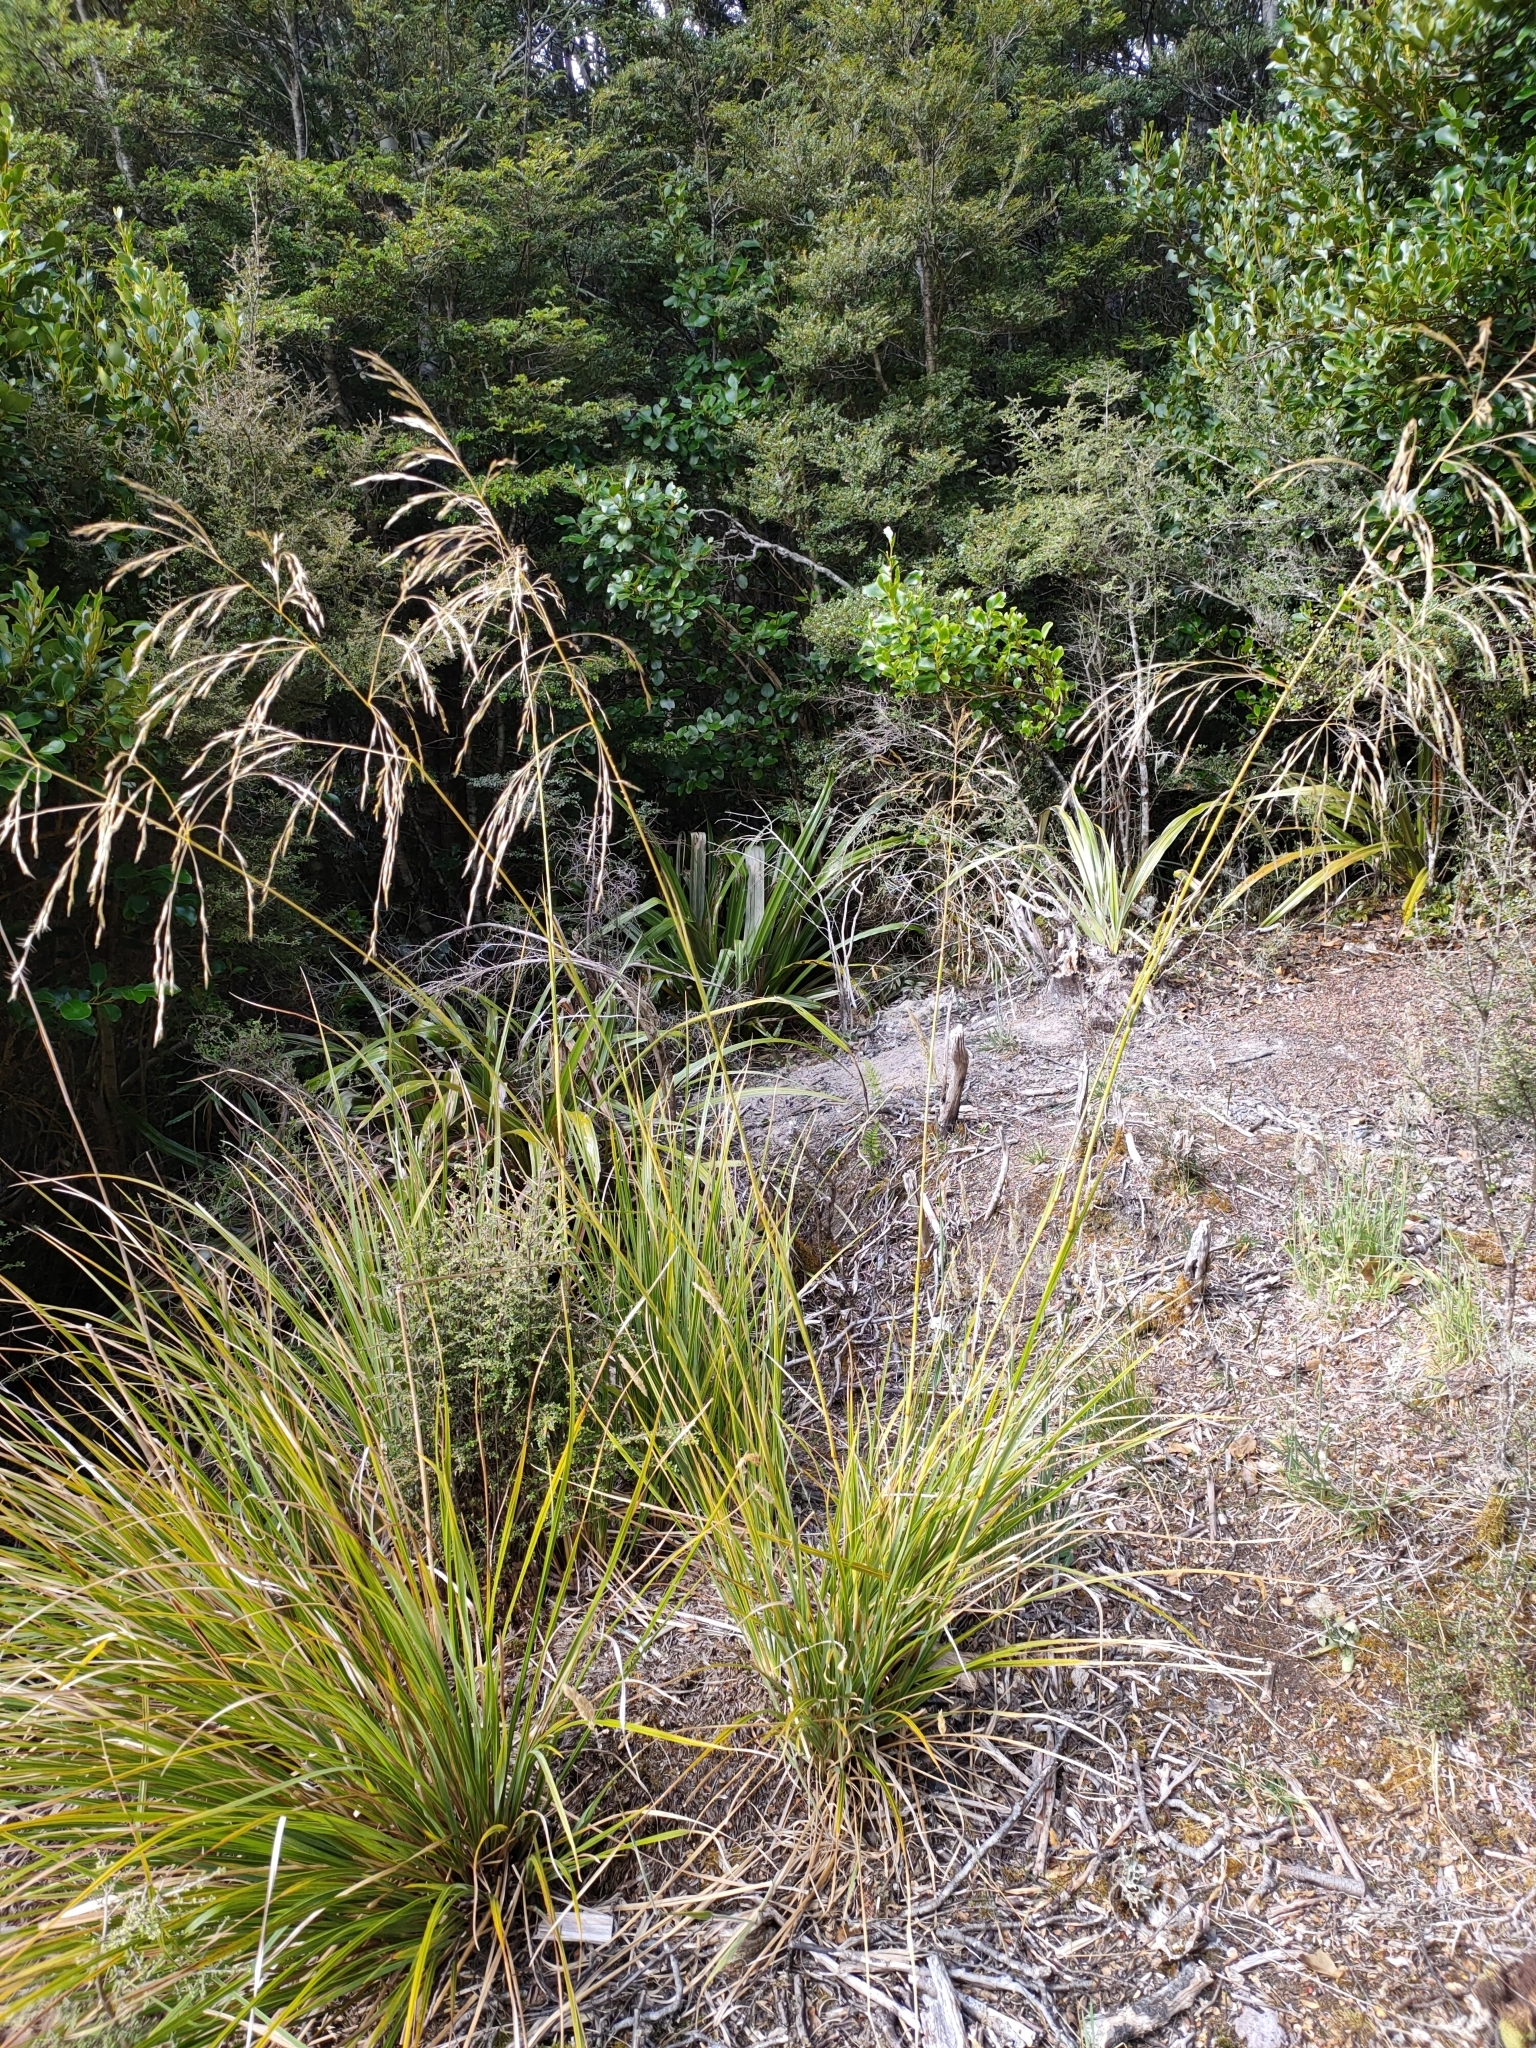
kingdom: Plantae
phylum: Tracheophyta
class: Liliopsida
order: Poales
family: Poaceae
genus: Chionochloa
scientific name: Chionochloa cheesemanii
